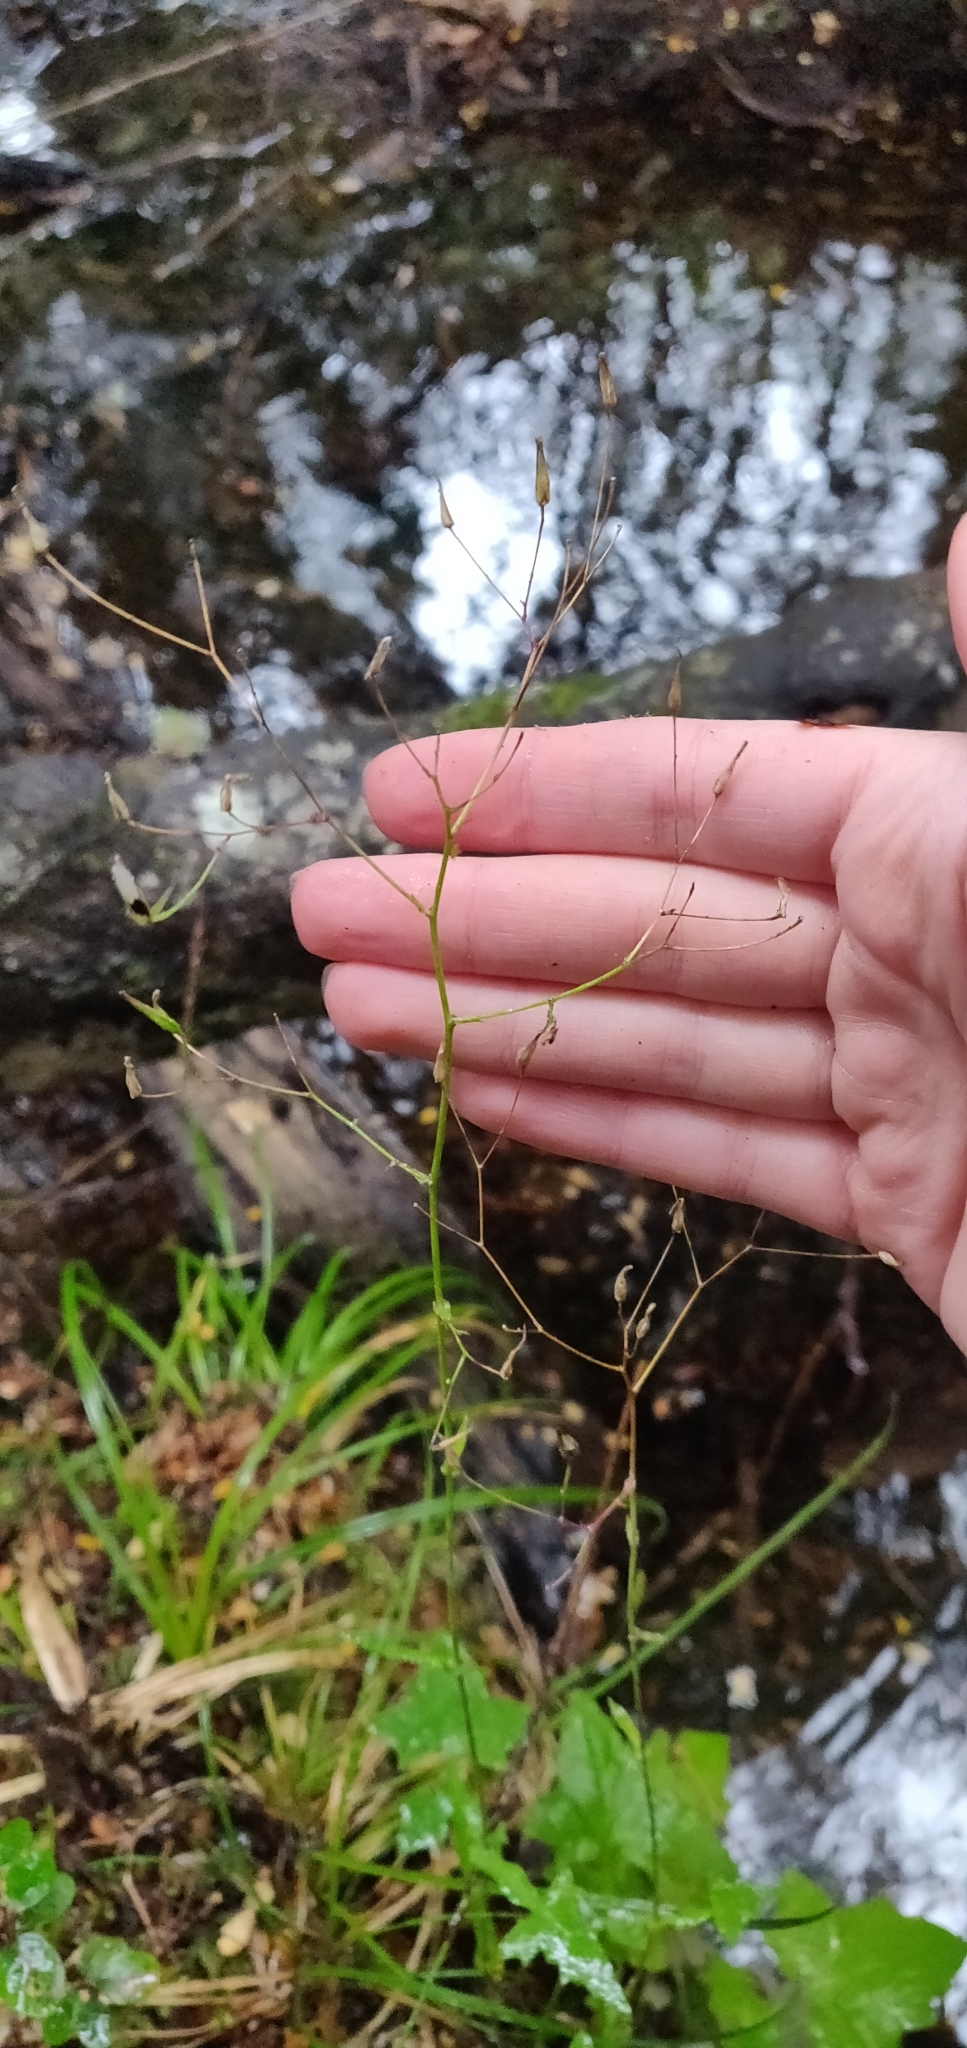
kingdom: Plantae
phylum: Tracheophyta
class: Magnoliopsida
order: Asterales
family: Asteraceae
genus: Mycelis
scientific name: Mycelis muralis
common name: Wall lettuce
